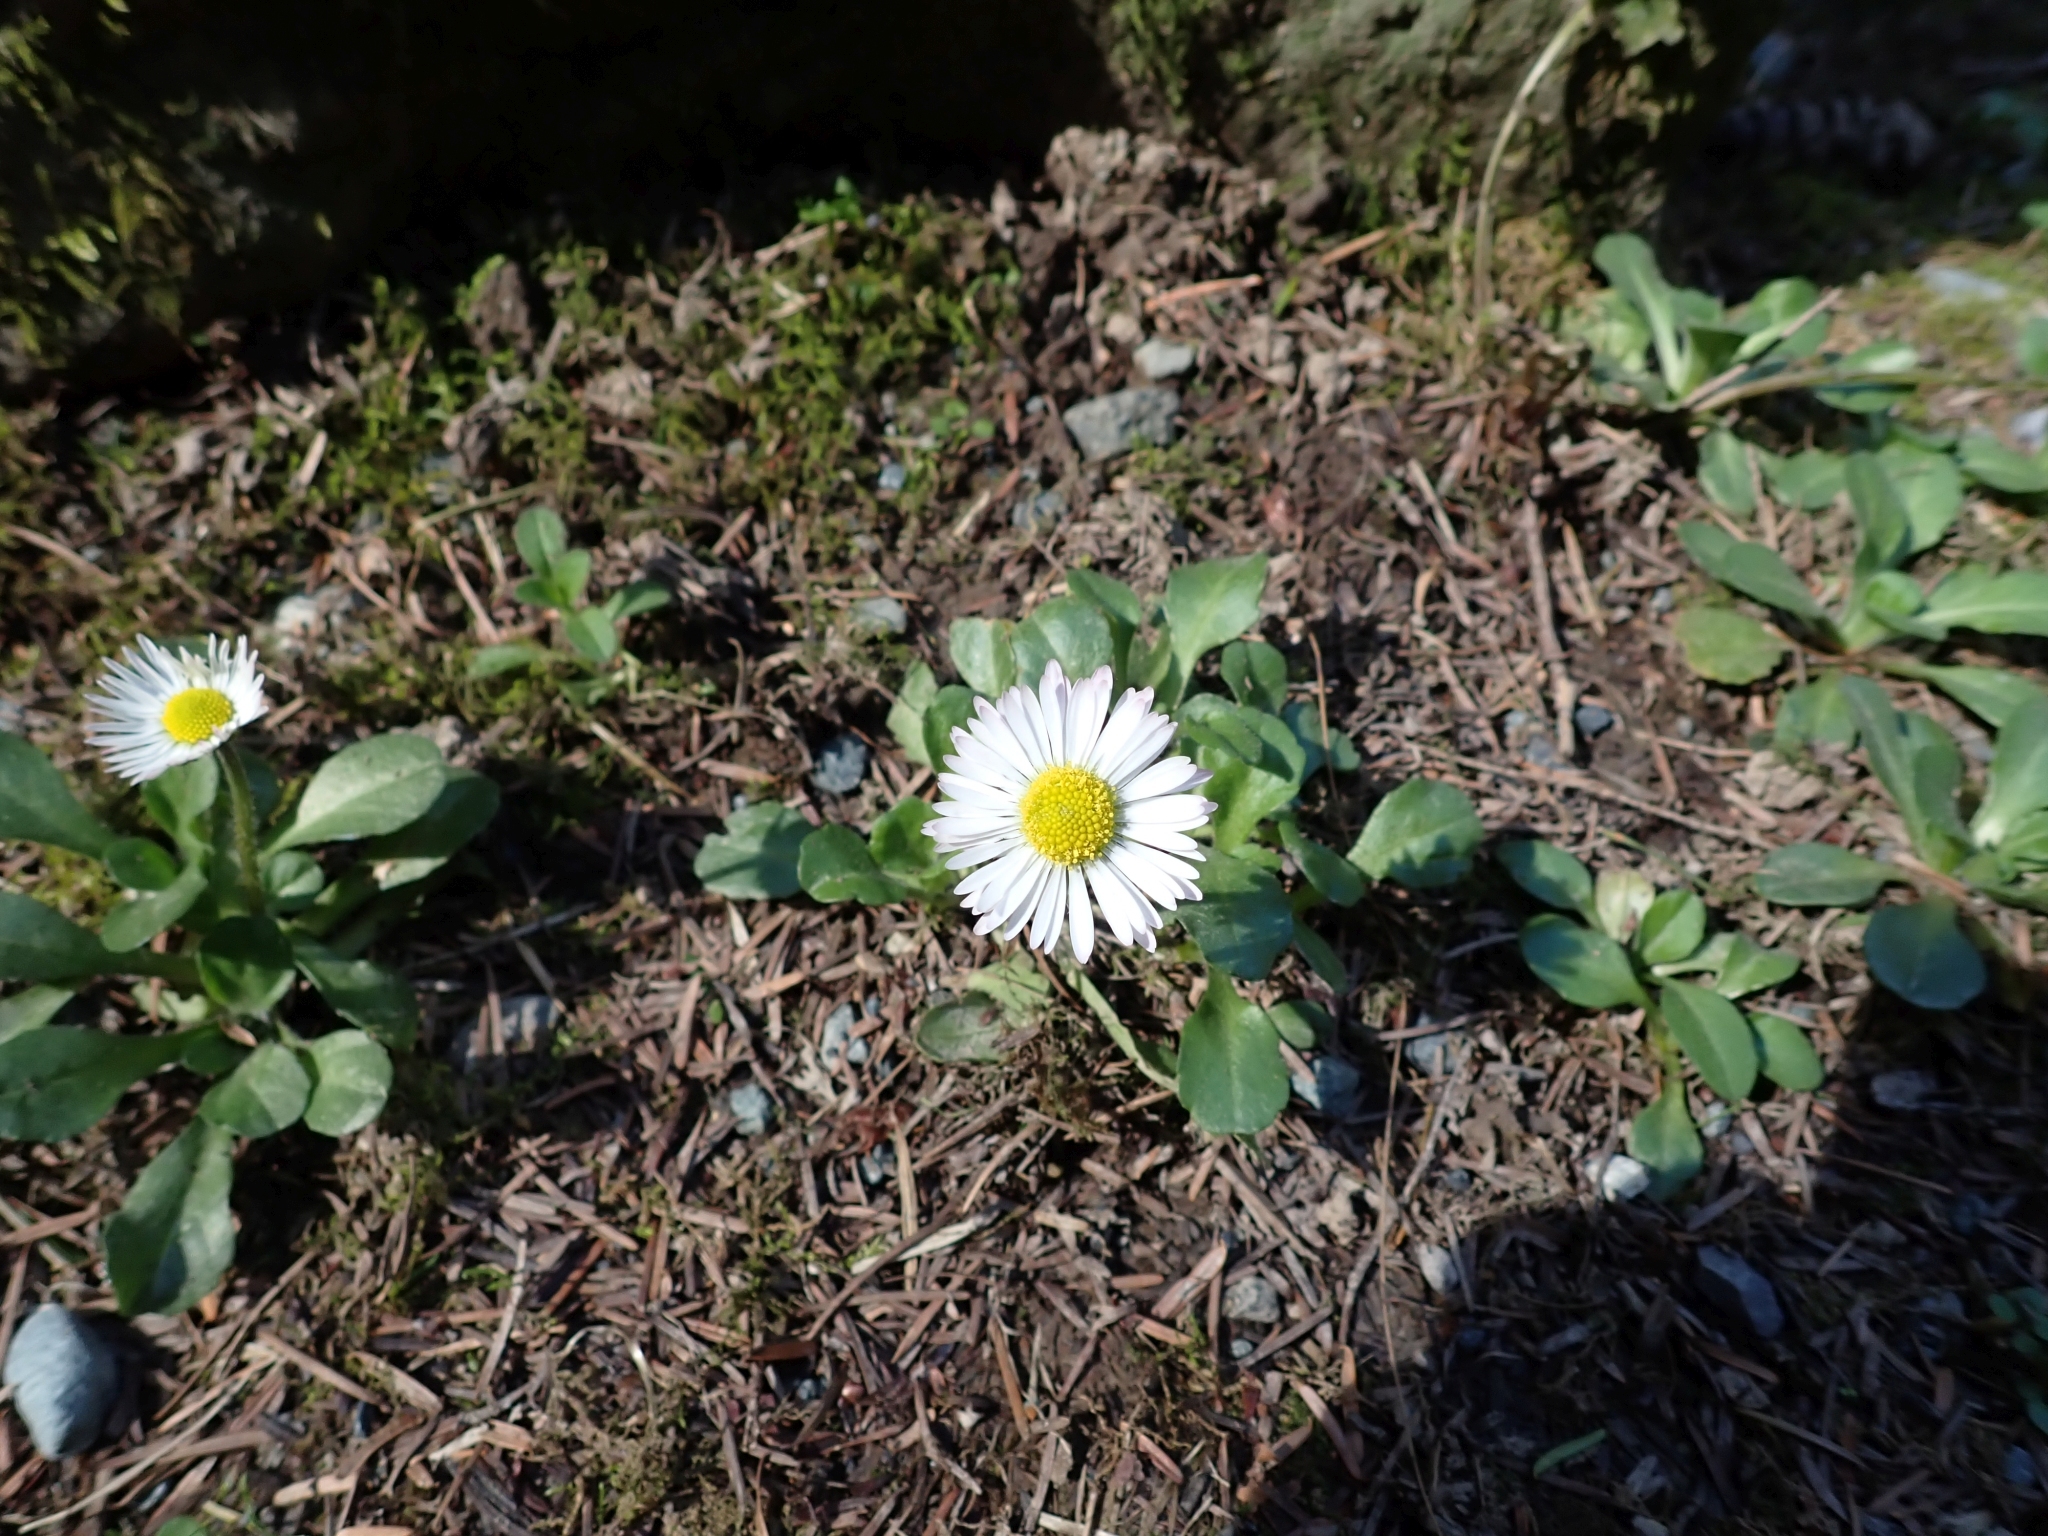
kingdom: Plantae
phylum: Tracheophyta
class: Magnoliopsida
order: Asterales
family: Asteraceae
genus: Bellis
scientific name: Bellis perennis
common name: Lawndaisy
